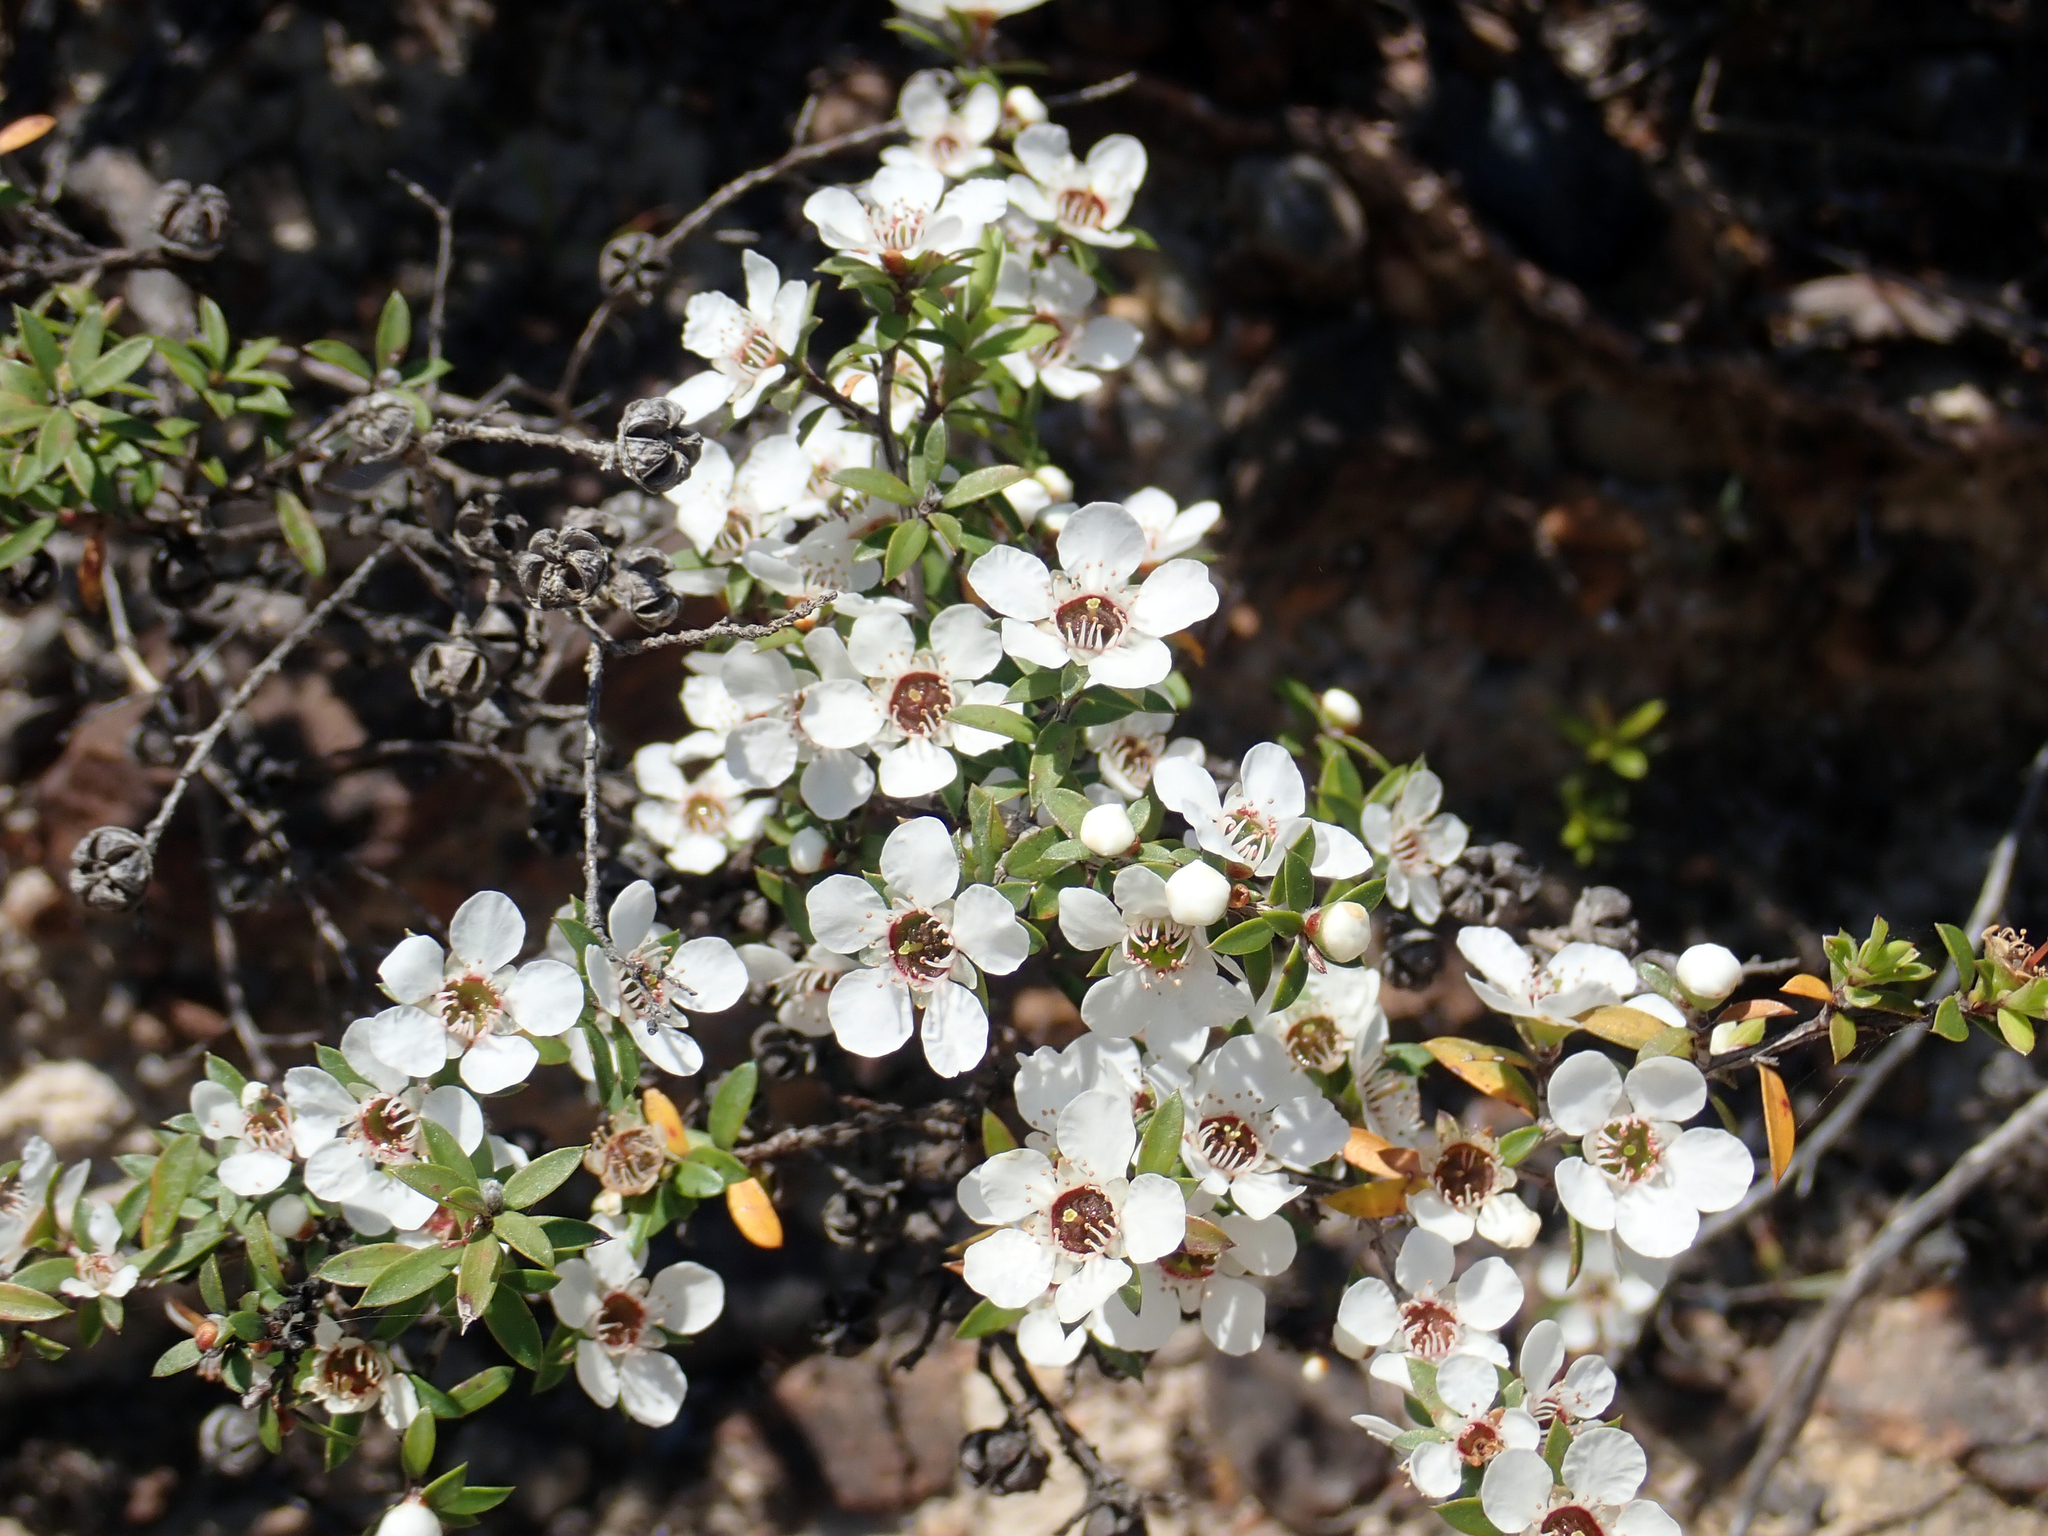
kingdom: Plantae
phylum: Tracheophyta
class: Magnoliopsida
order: Myrtales
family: Myrtaceae
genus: Leptospermum
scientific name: Leptospermum scoparium
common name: Broom tea-tree
